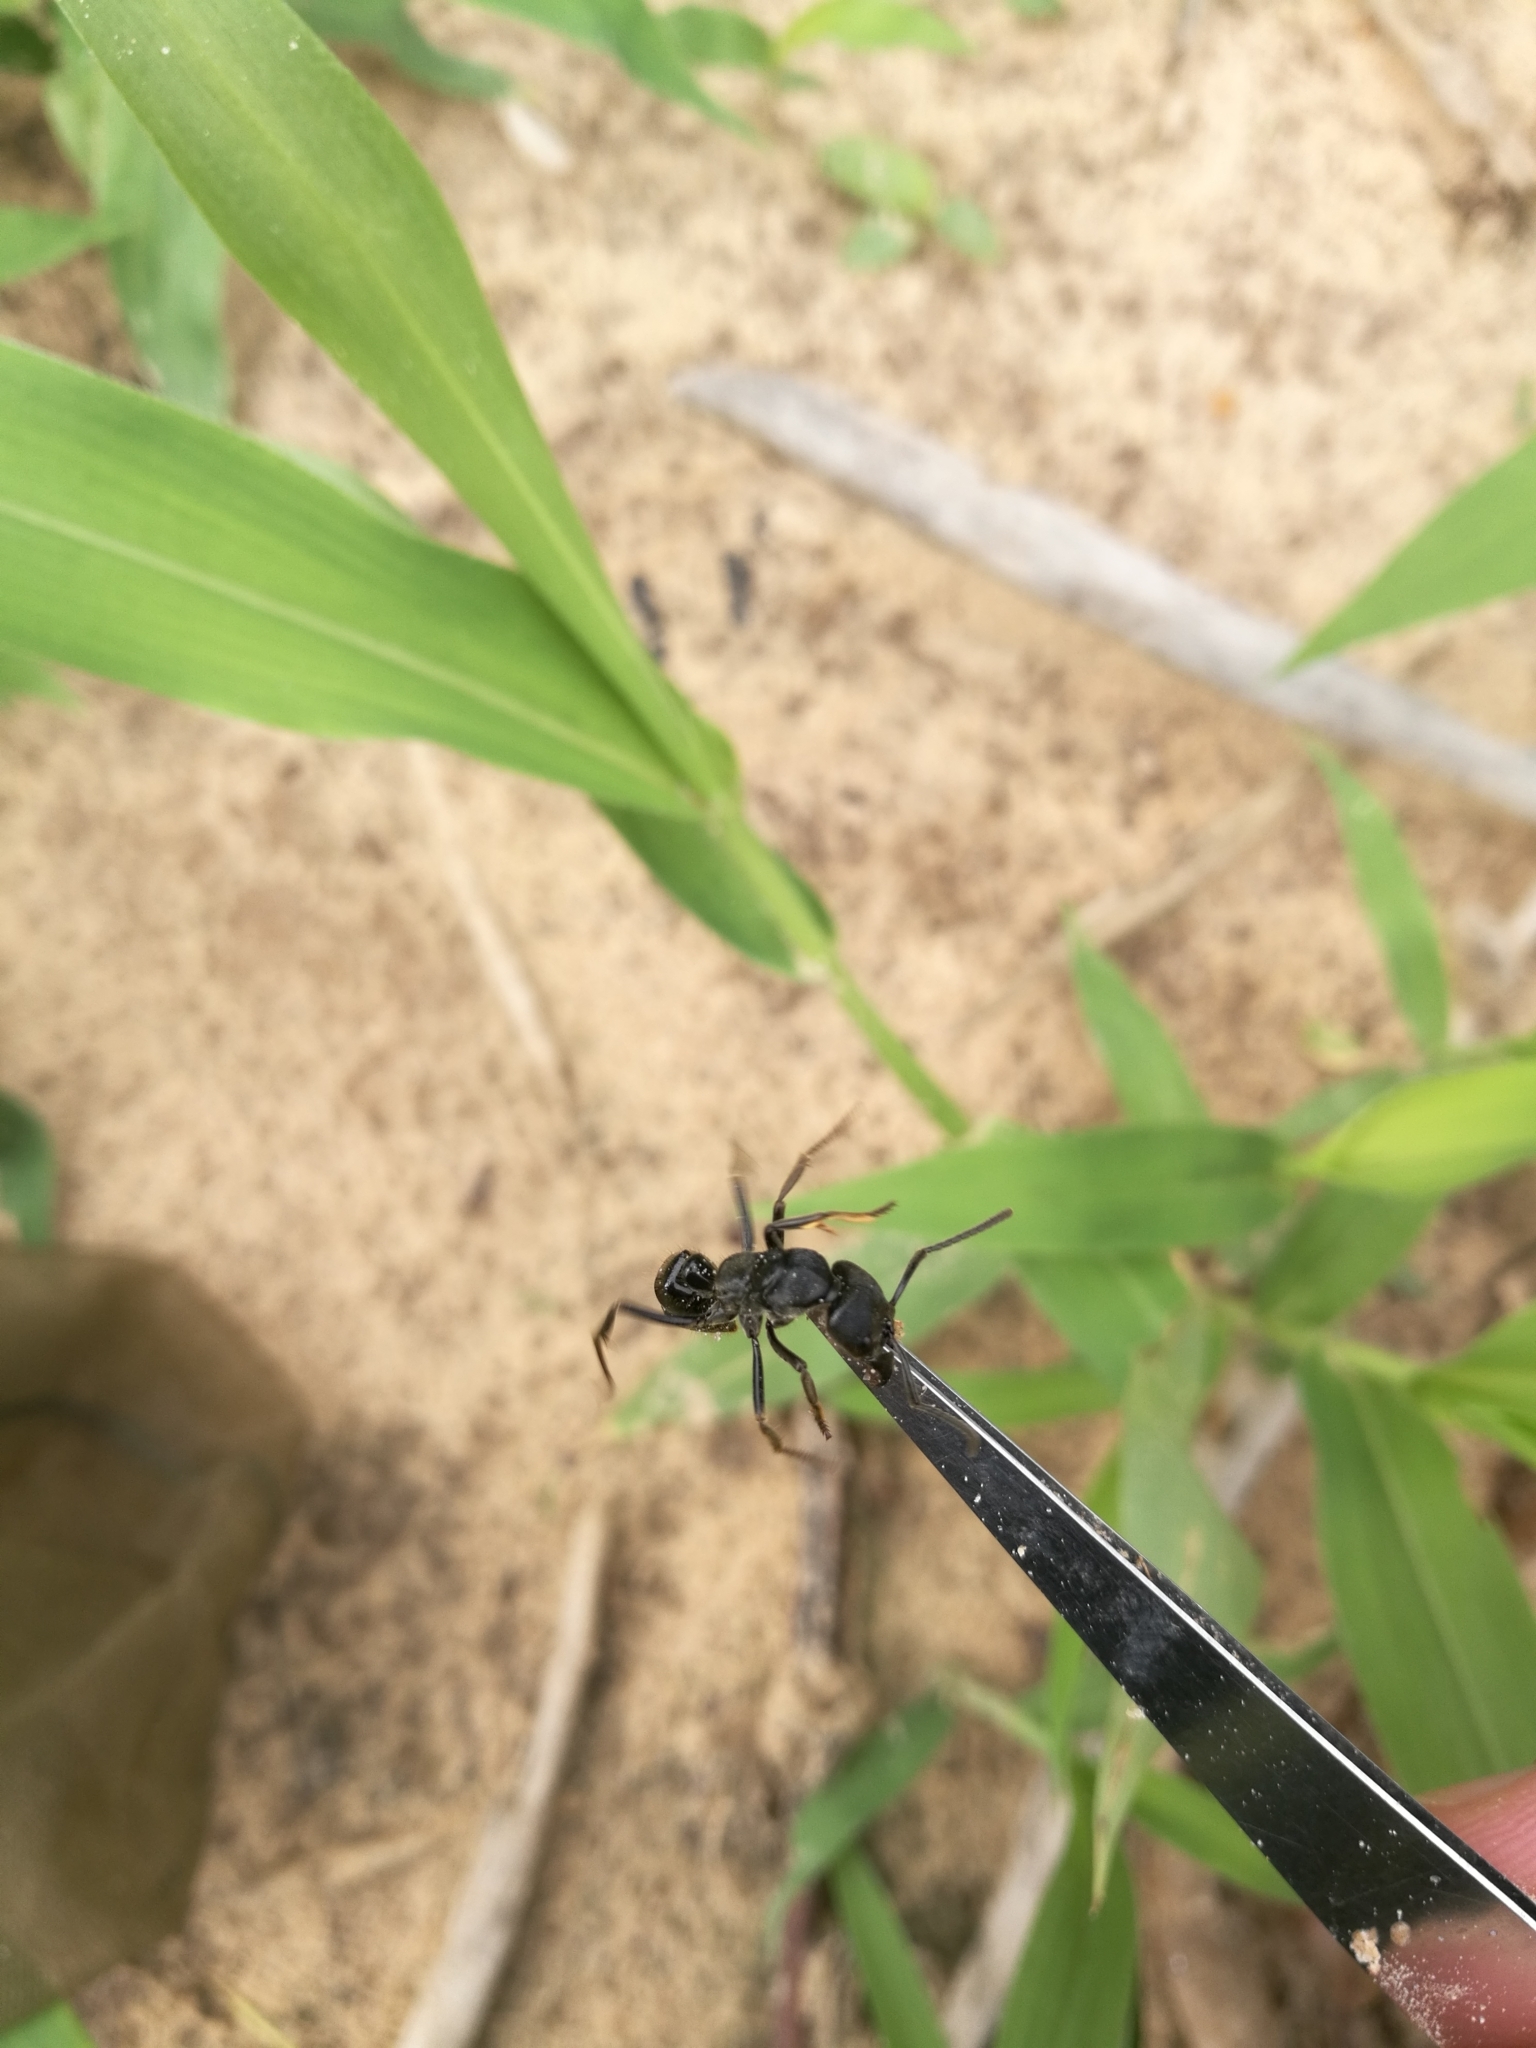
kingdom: Animalia
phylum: Arthropoda
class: Insecta
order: Hymenoptera
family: Formicidae
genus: Paltothyreus
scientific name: Paltothyreus tarsatus
